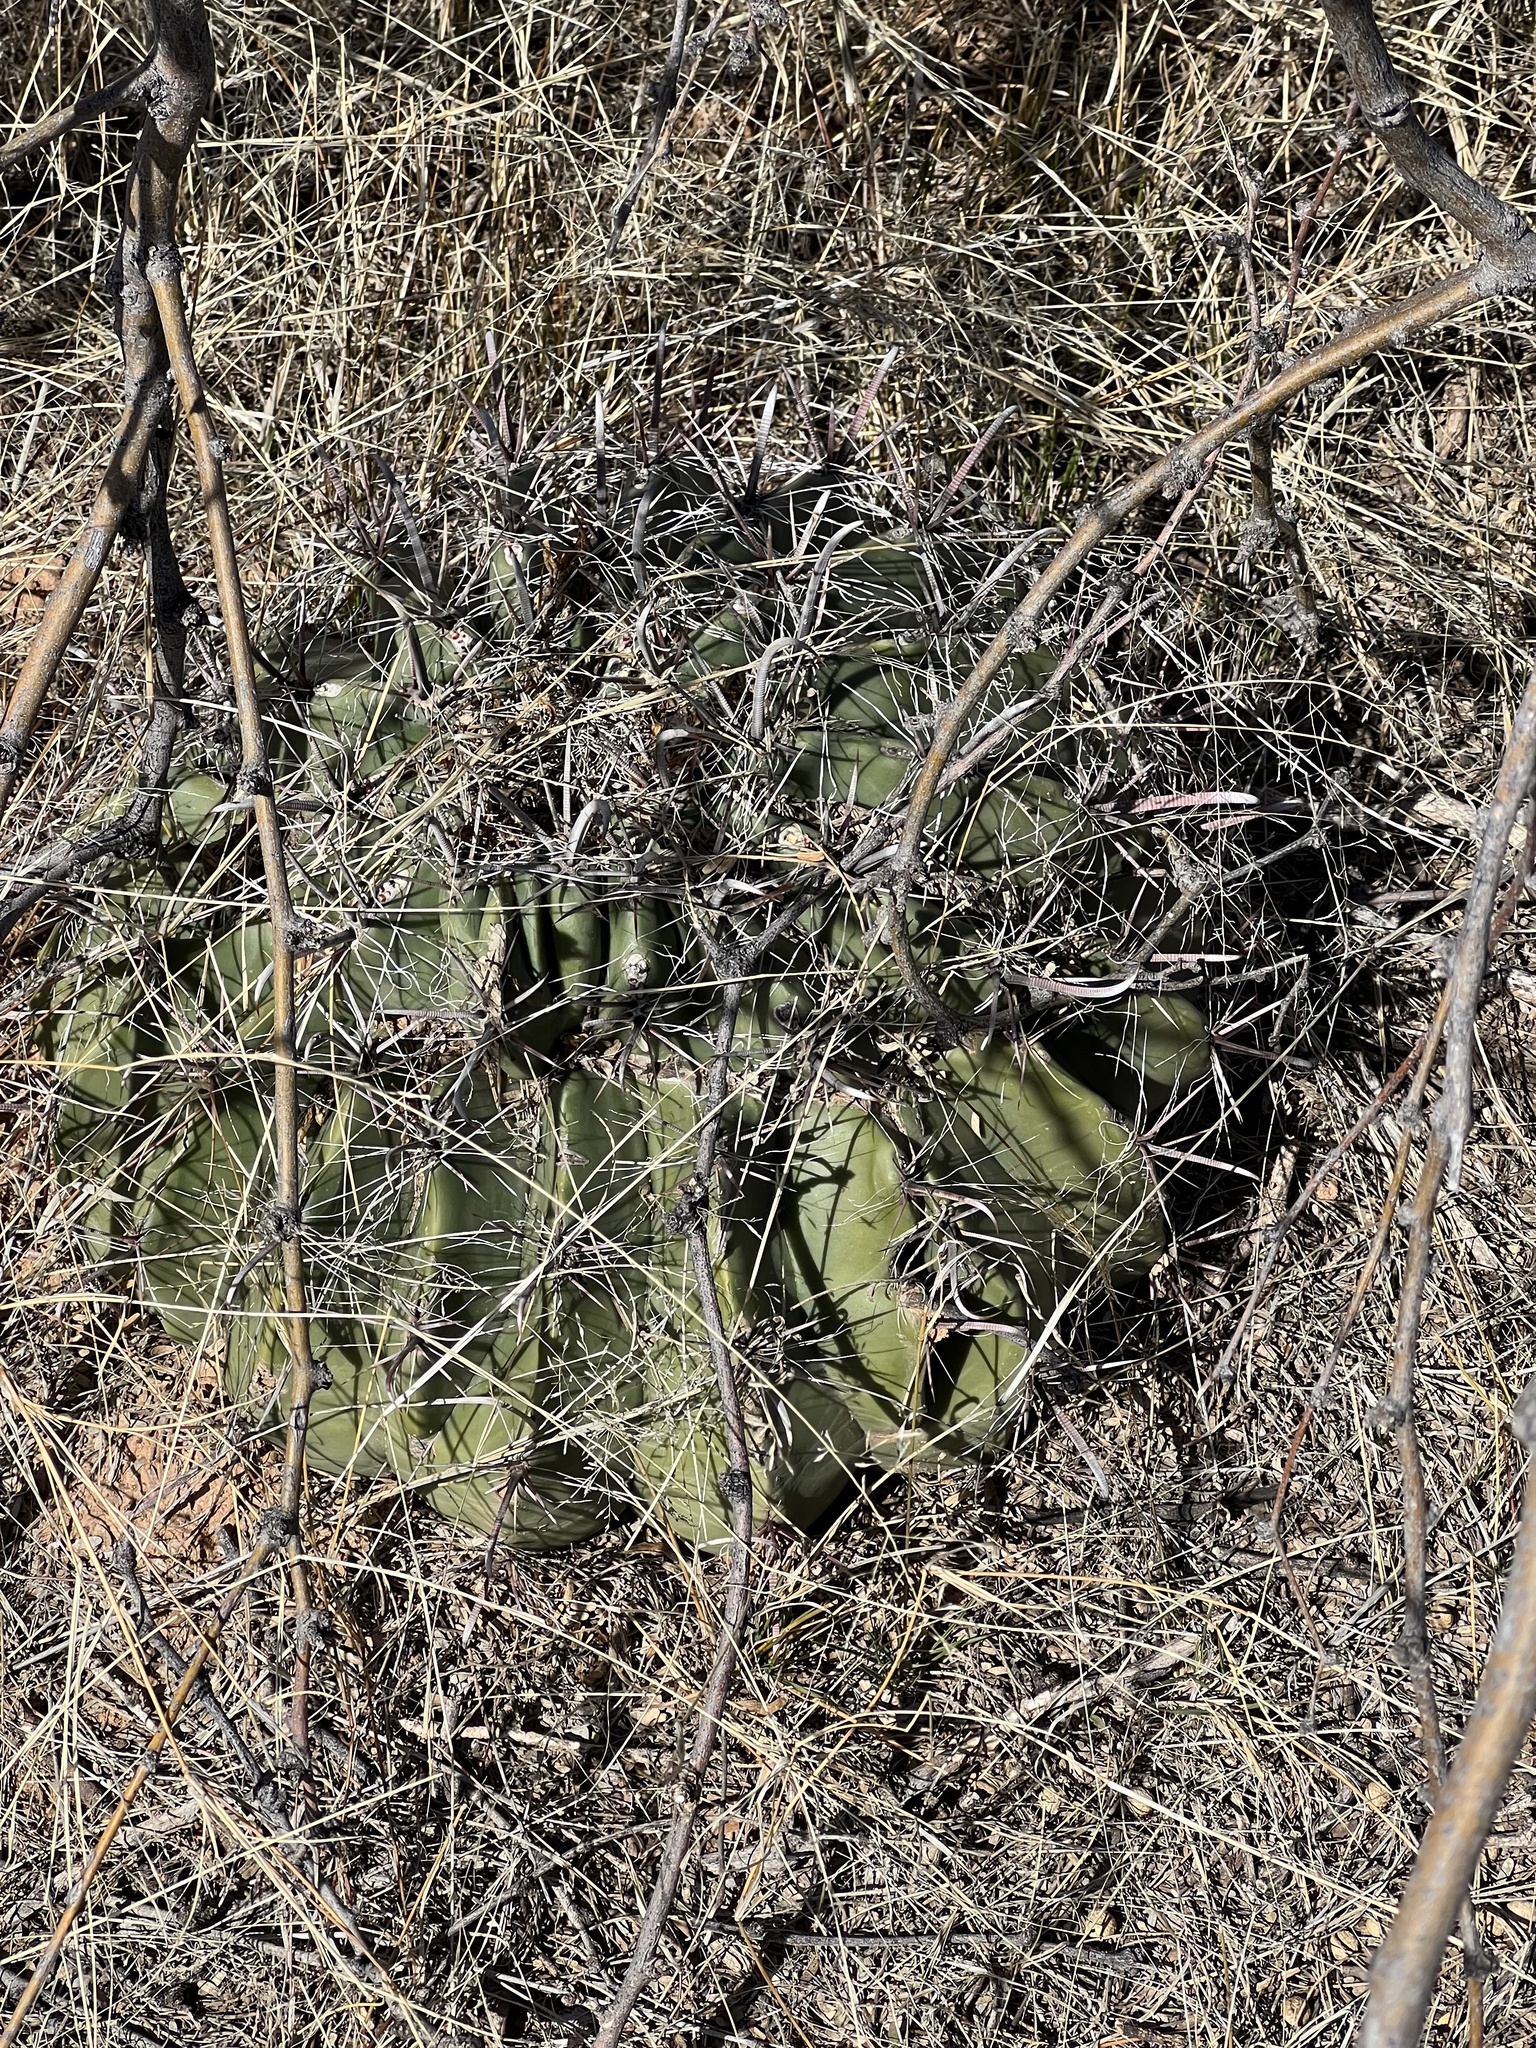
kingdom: Plantae
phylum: Tracheophyta
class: Magnoliopsida
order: Caryophyllales
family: Cactaceae
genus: Ferocactus
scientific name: Ferocactus wislizeni
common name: Candy barrel cactus
